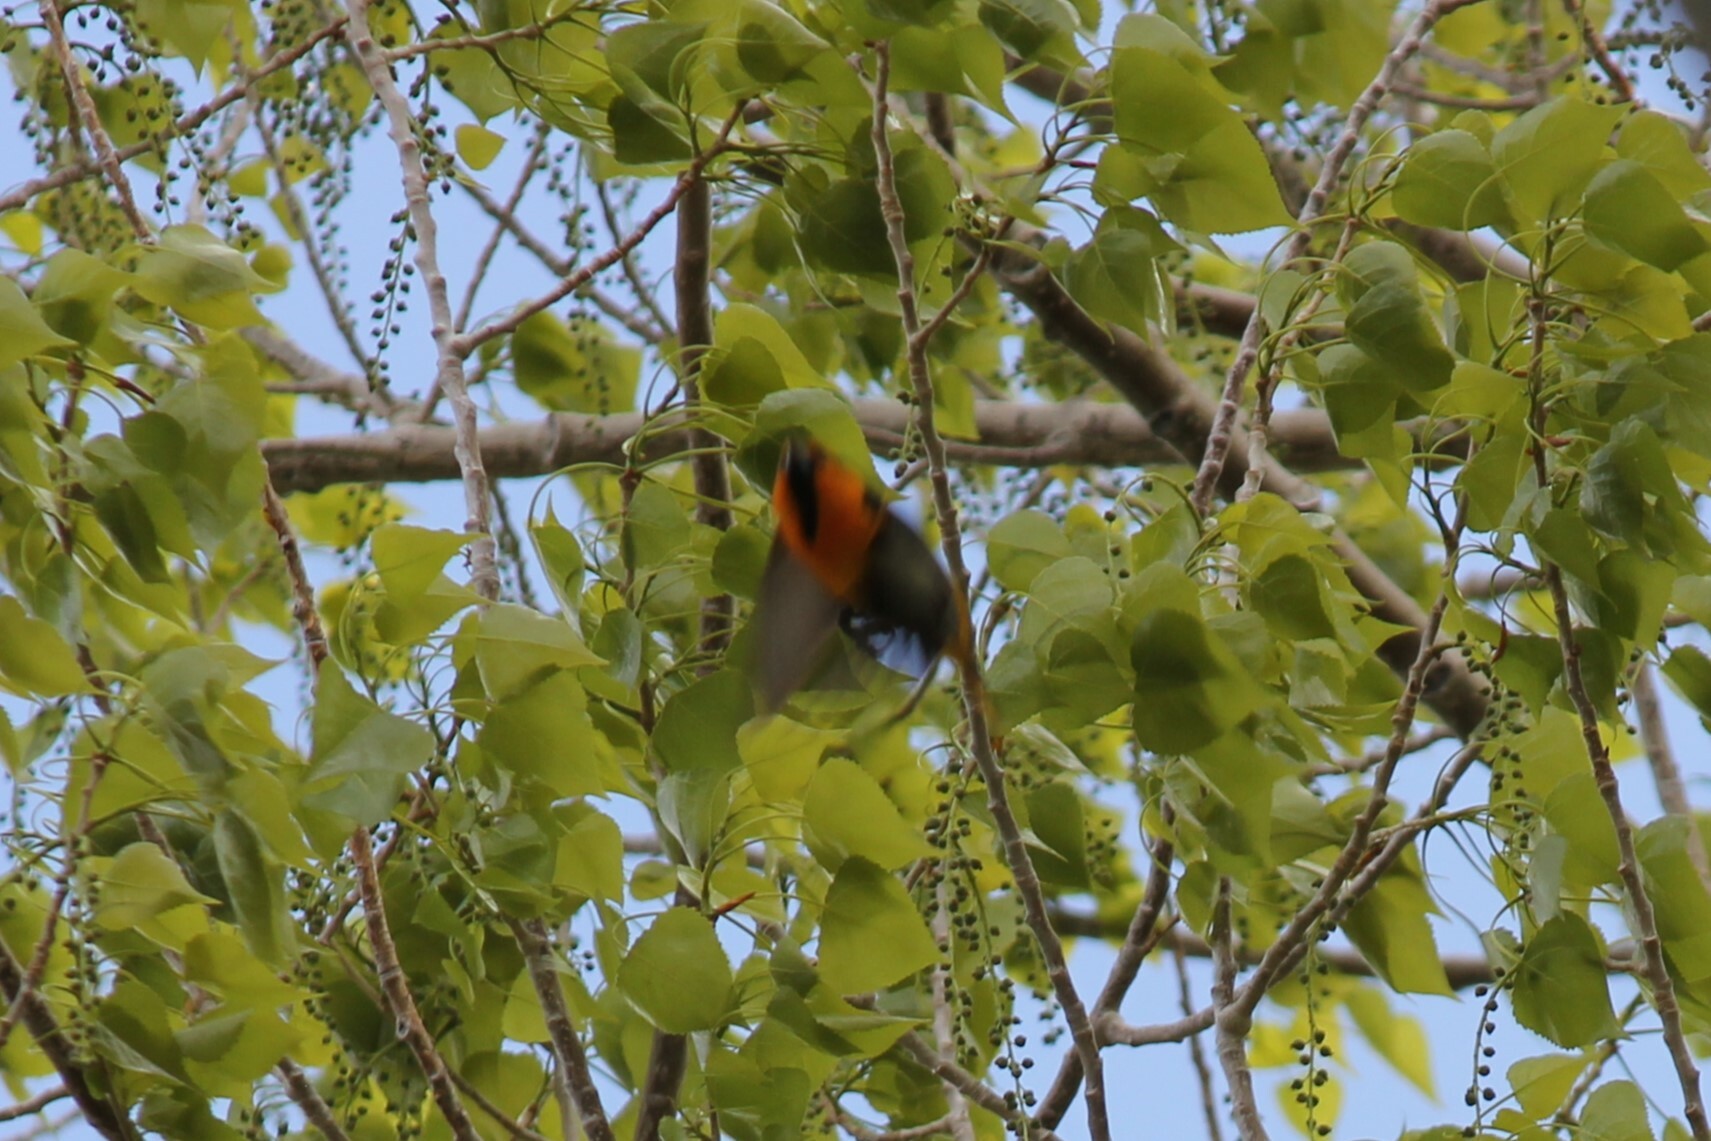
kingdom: Animalia
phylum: Chordata
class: Aves
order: Passeriformes
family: Icteridae
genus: Icterus
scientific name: Icterus bullockii
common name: Bullock's oriole
